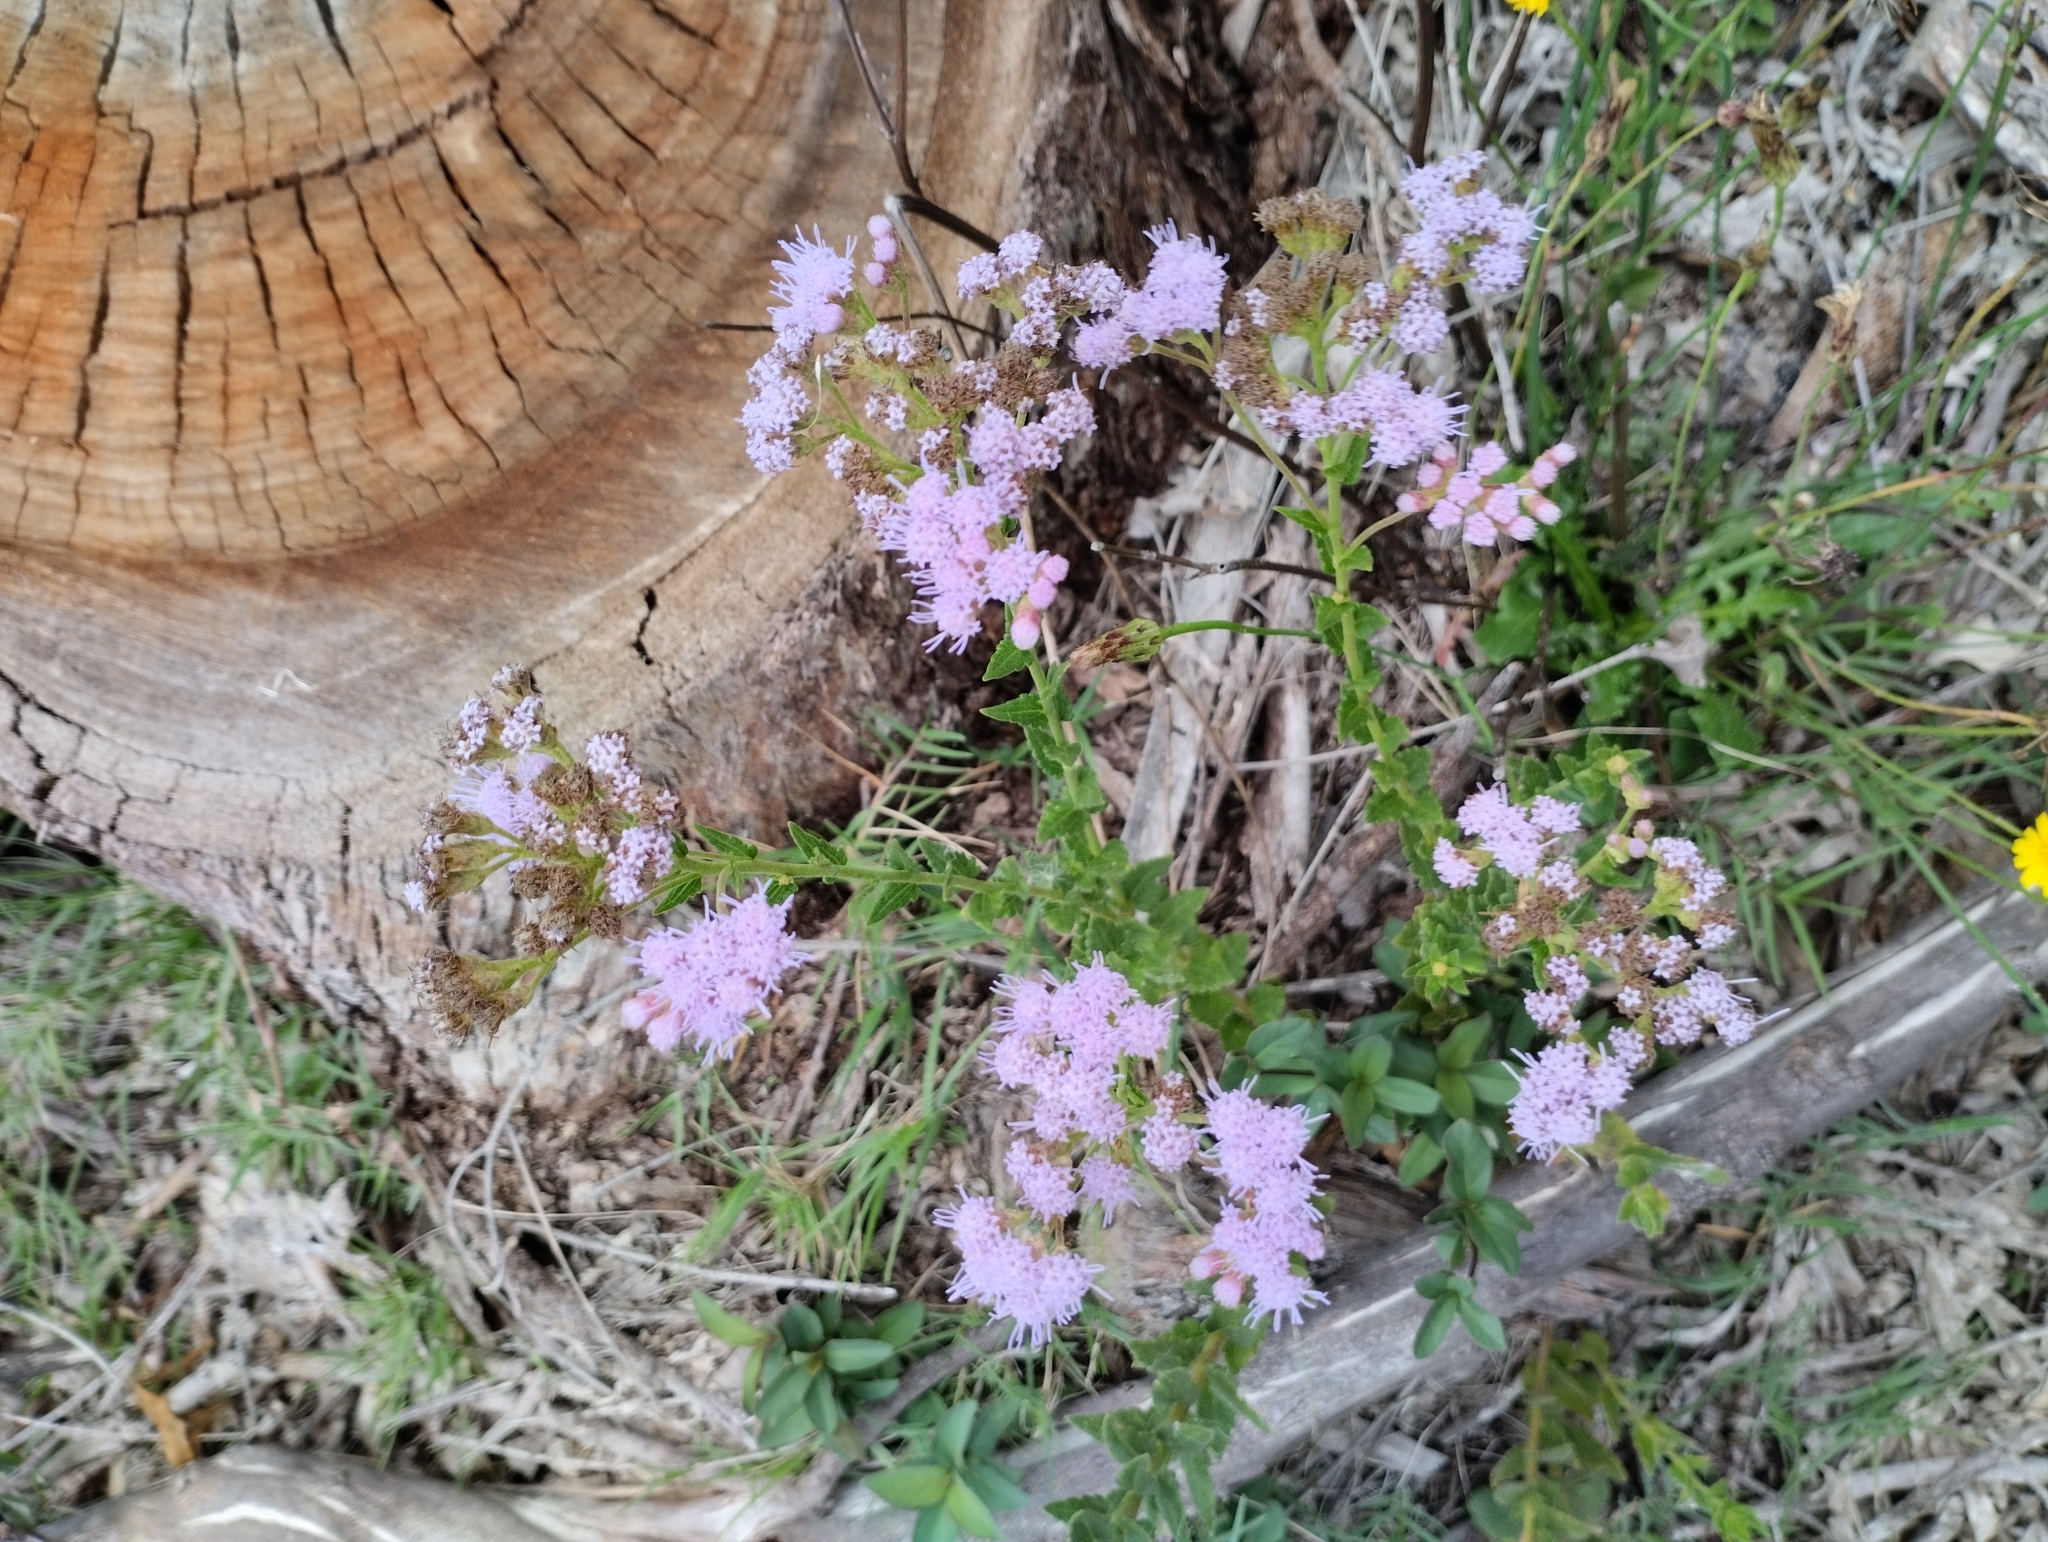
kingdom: Plantae
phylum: Tracheophyta
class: Magnoliopsida
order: Asterales
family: Asteraceae
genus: Chromolaena
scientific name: Chromolaena hirsuta
